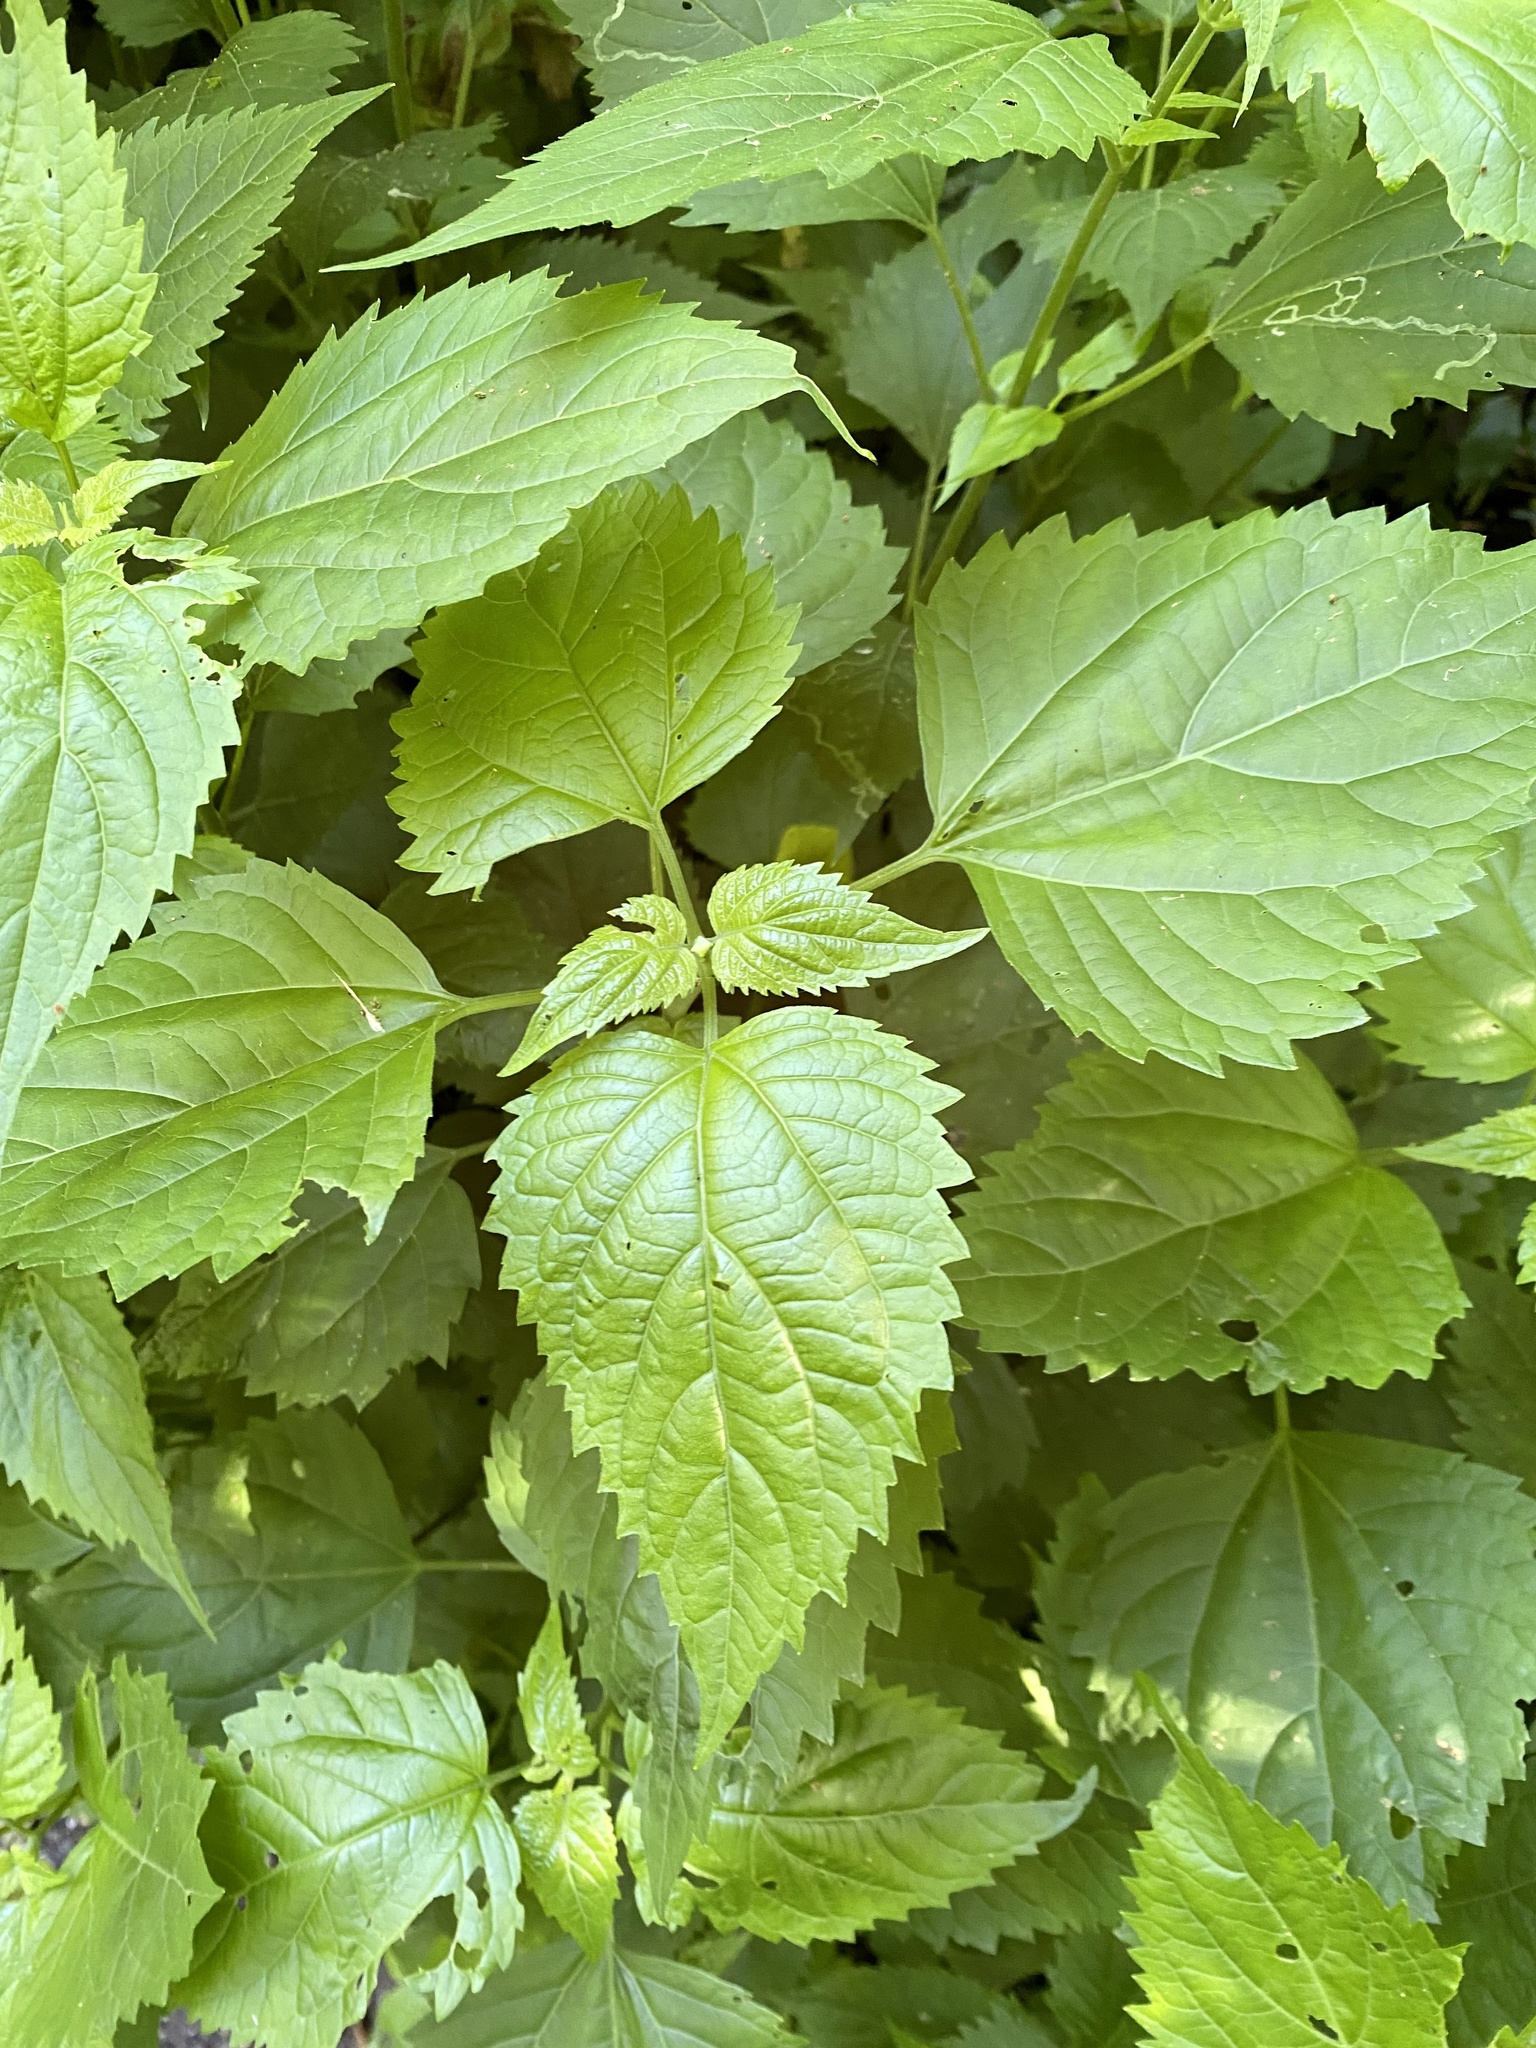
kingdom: Plantae
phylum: Tracheophyta
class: Magnoliopsida
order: Asterales
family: Asteraceae
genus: Ageratina
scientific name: Ageratina altissima
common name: White snakeroot
